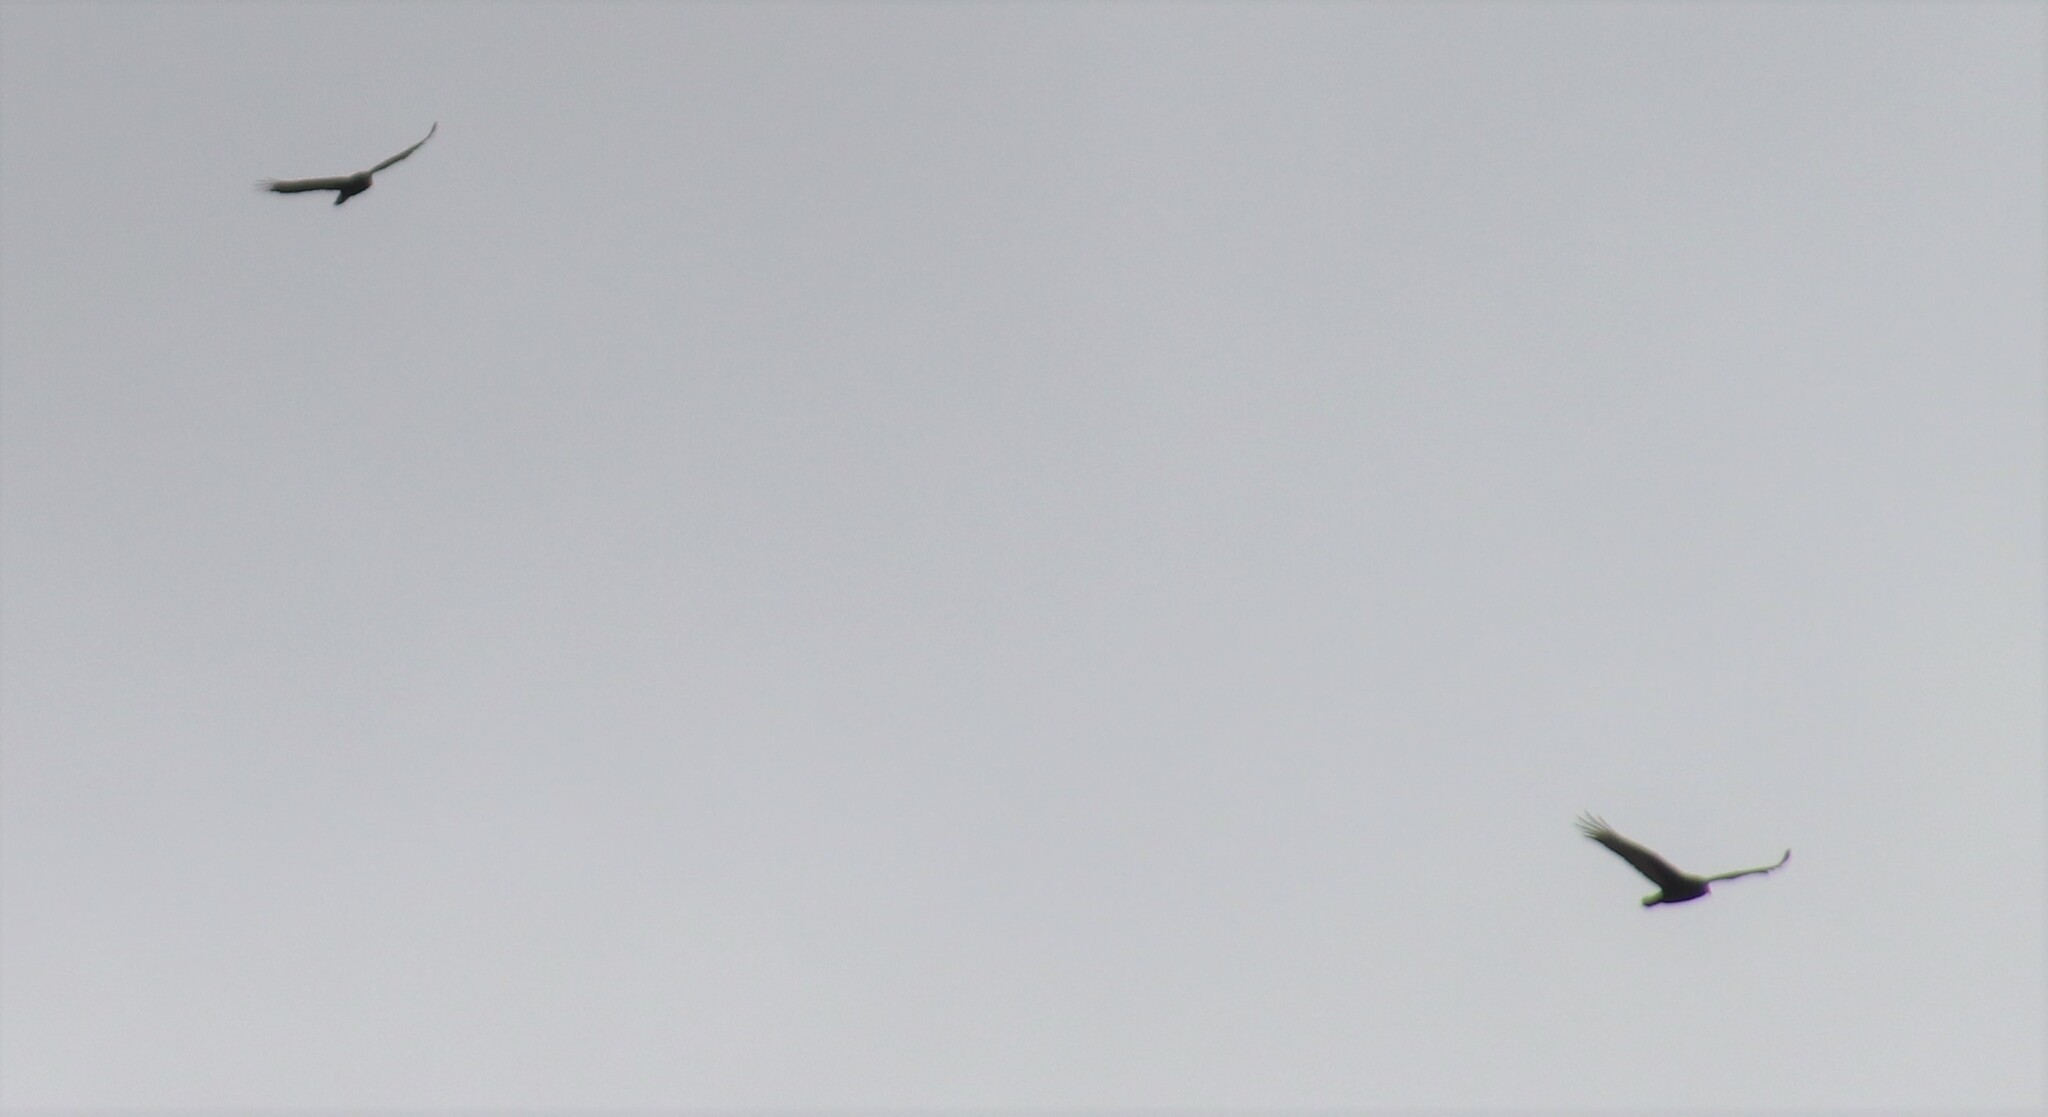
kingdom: Animalia
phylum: Chordata
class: Aves
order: Accipitriformes
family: Cathartidae
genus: Cathartes
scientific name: Cathartes aura
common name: Turkey vulture
